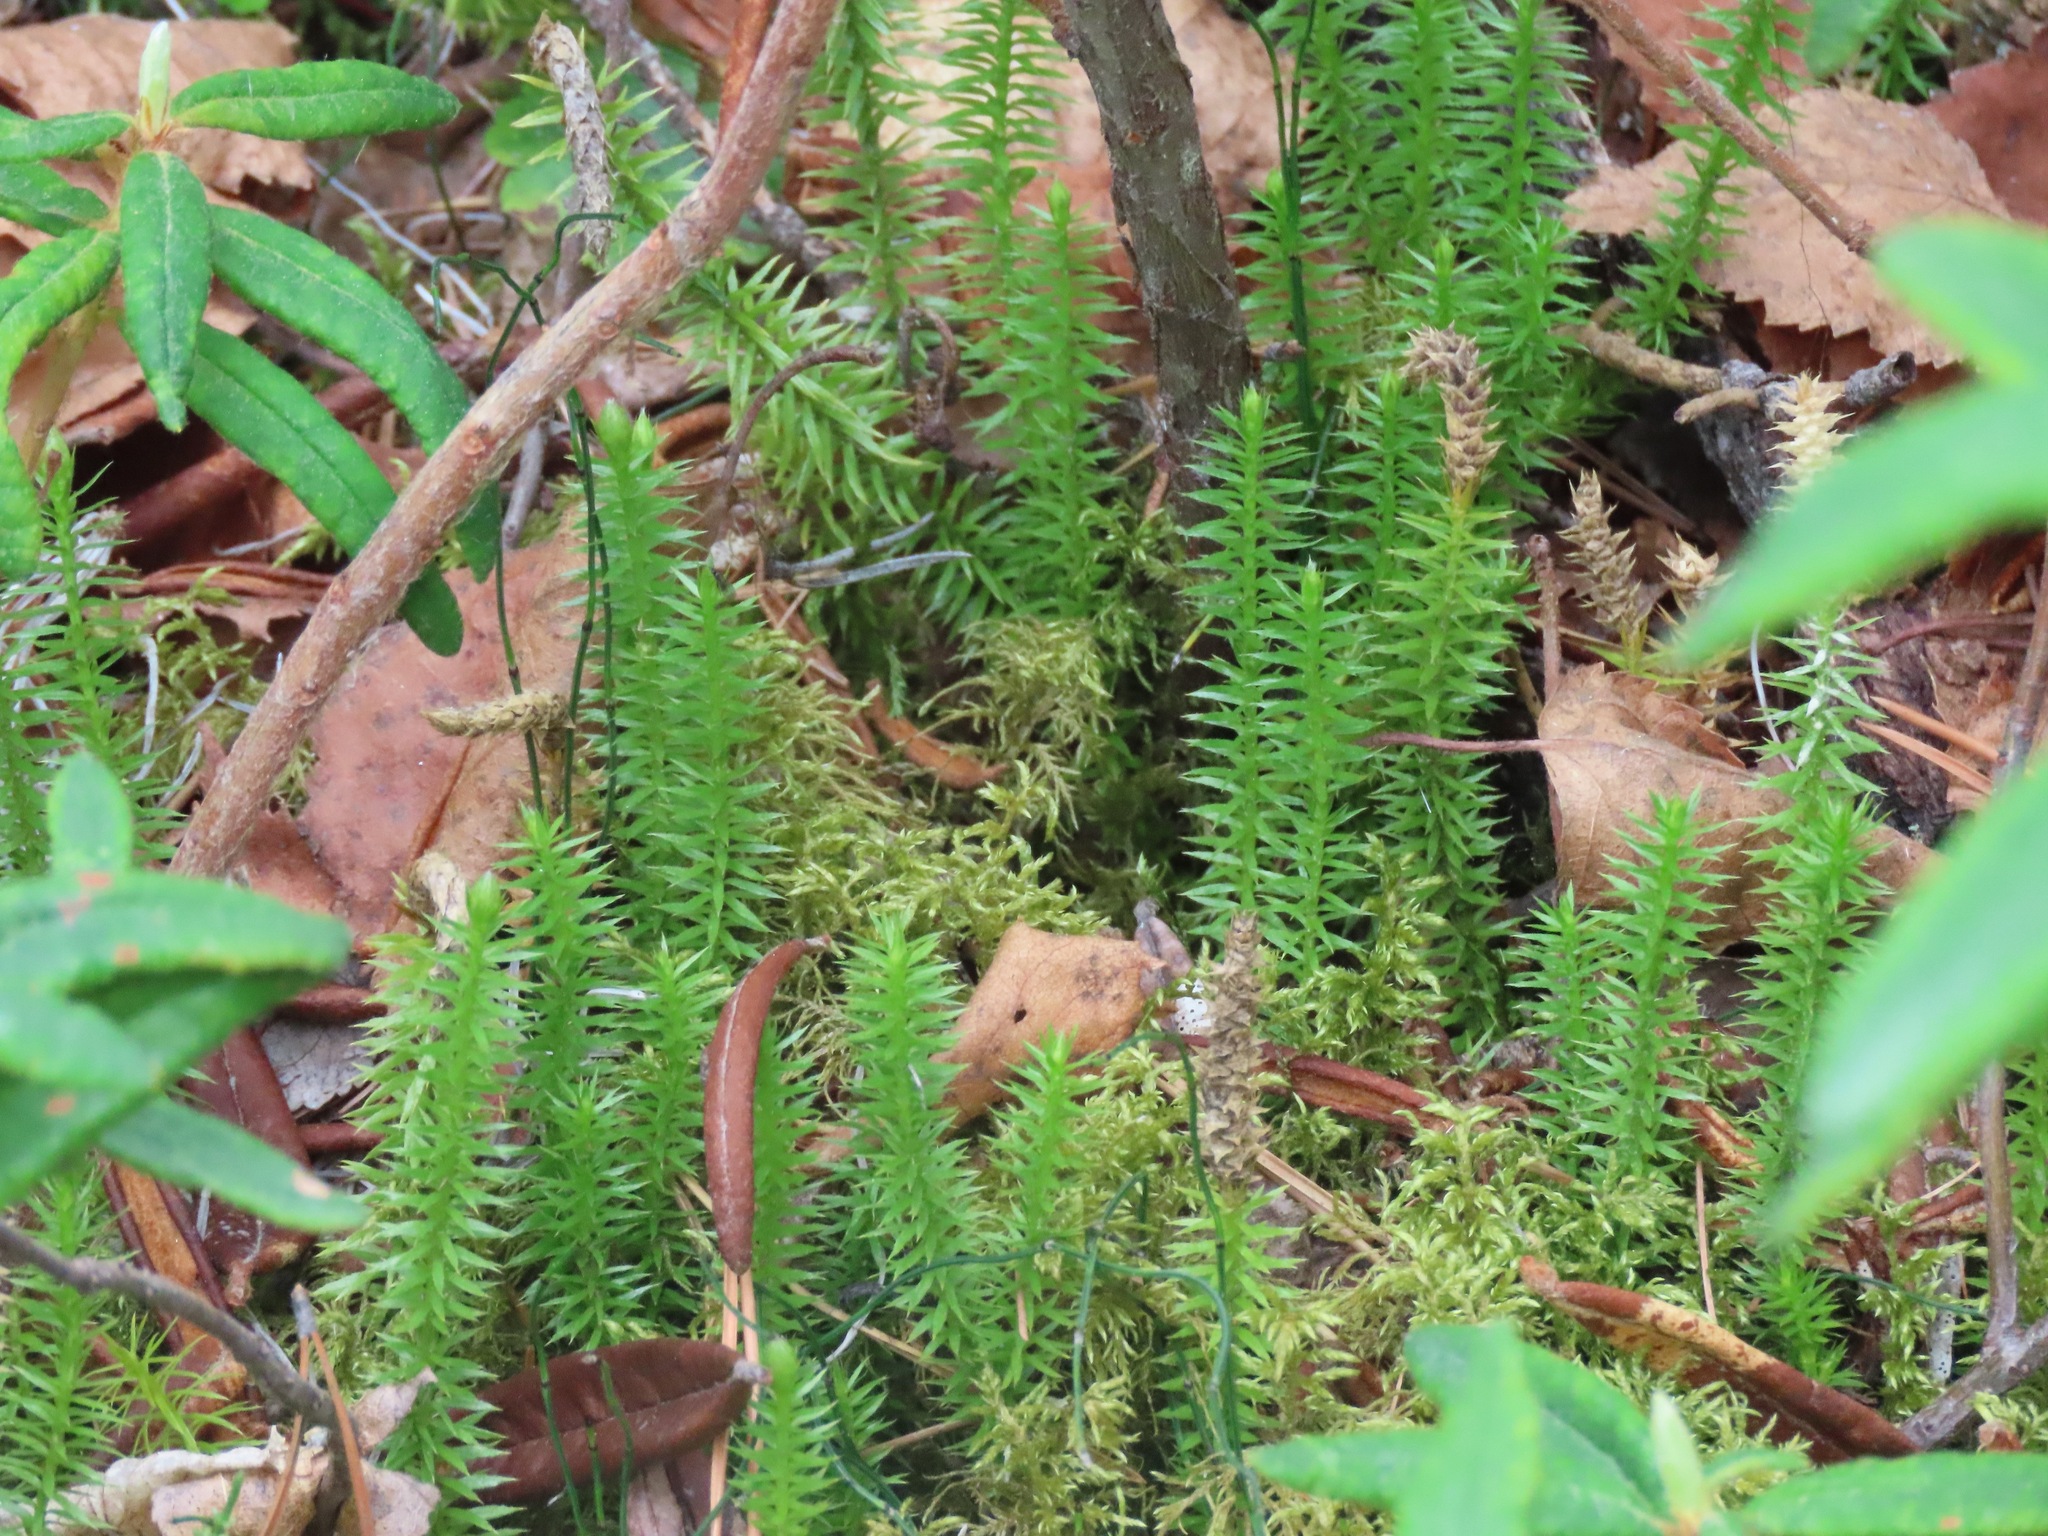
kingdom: Plantae
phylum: Tracheophyta
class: Lycopodiopsida
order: Lycopodiales
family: Lycopodiaceae
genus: Spinulum
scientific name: Spinulum annotinum
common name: Interrupted club-moss
